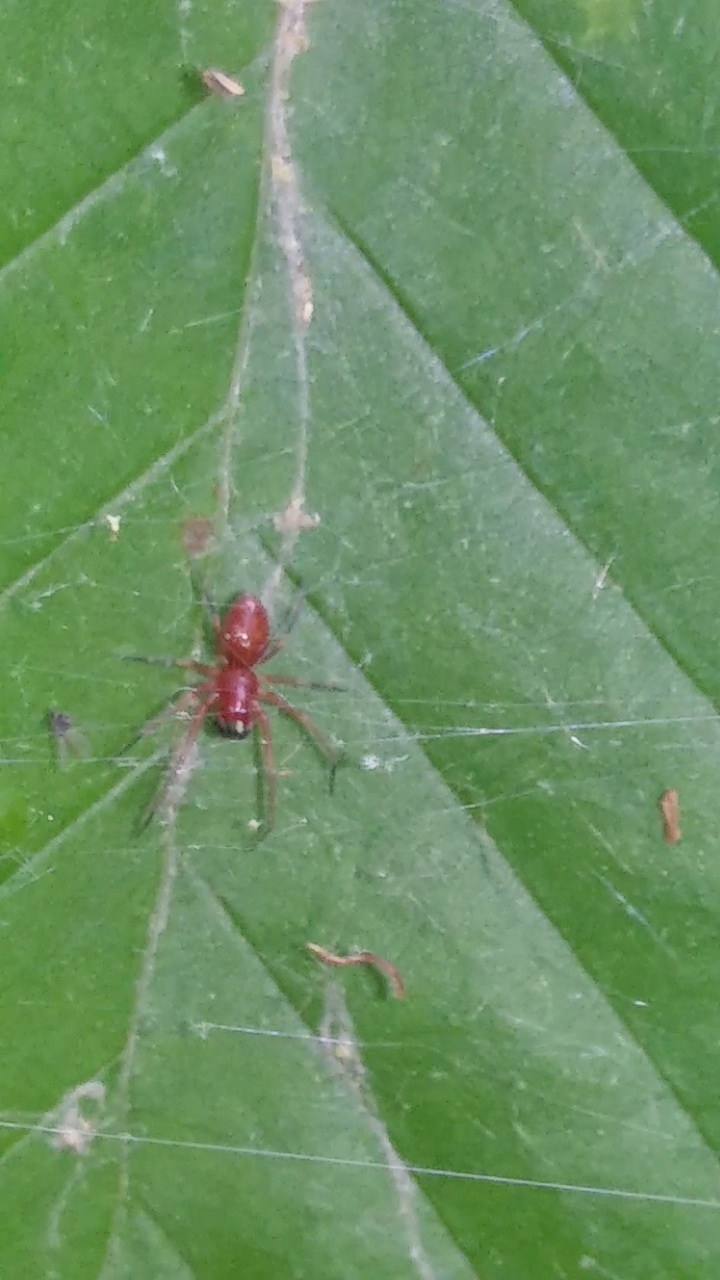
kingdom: Animalia
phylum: Arthropoda
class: Arachnida
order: Araneae
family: Linyphiidae
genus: Florinda
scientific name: Florinda coccinea
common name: Black-tailed red sheetweaver
